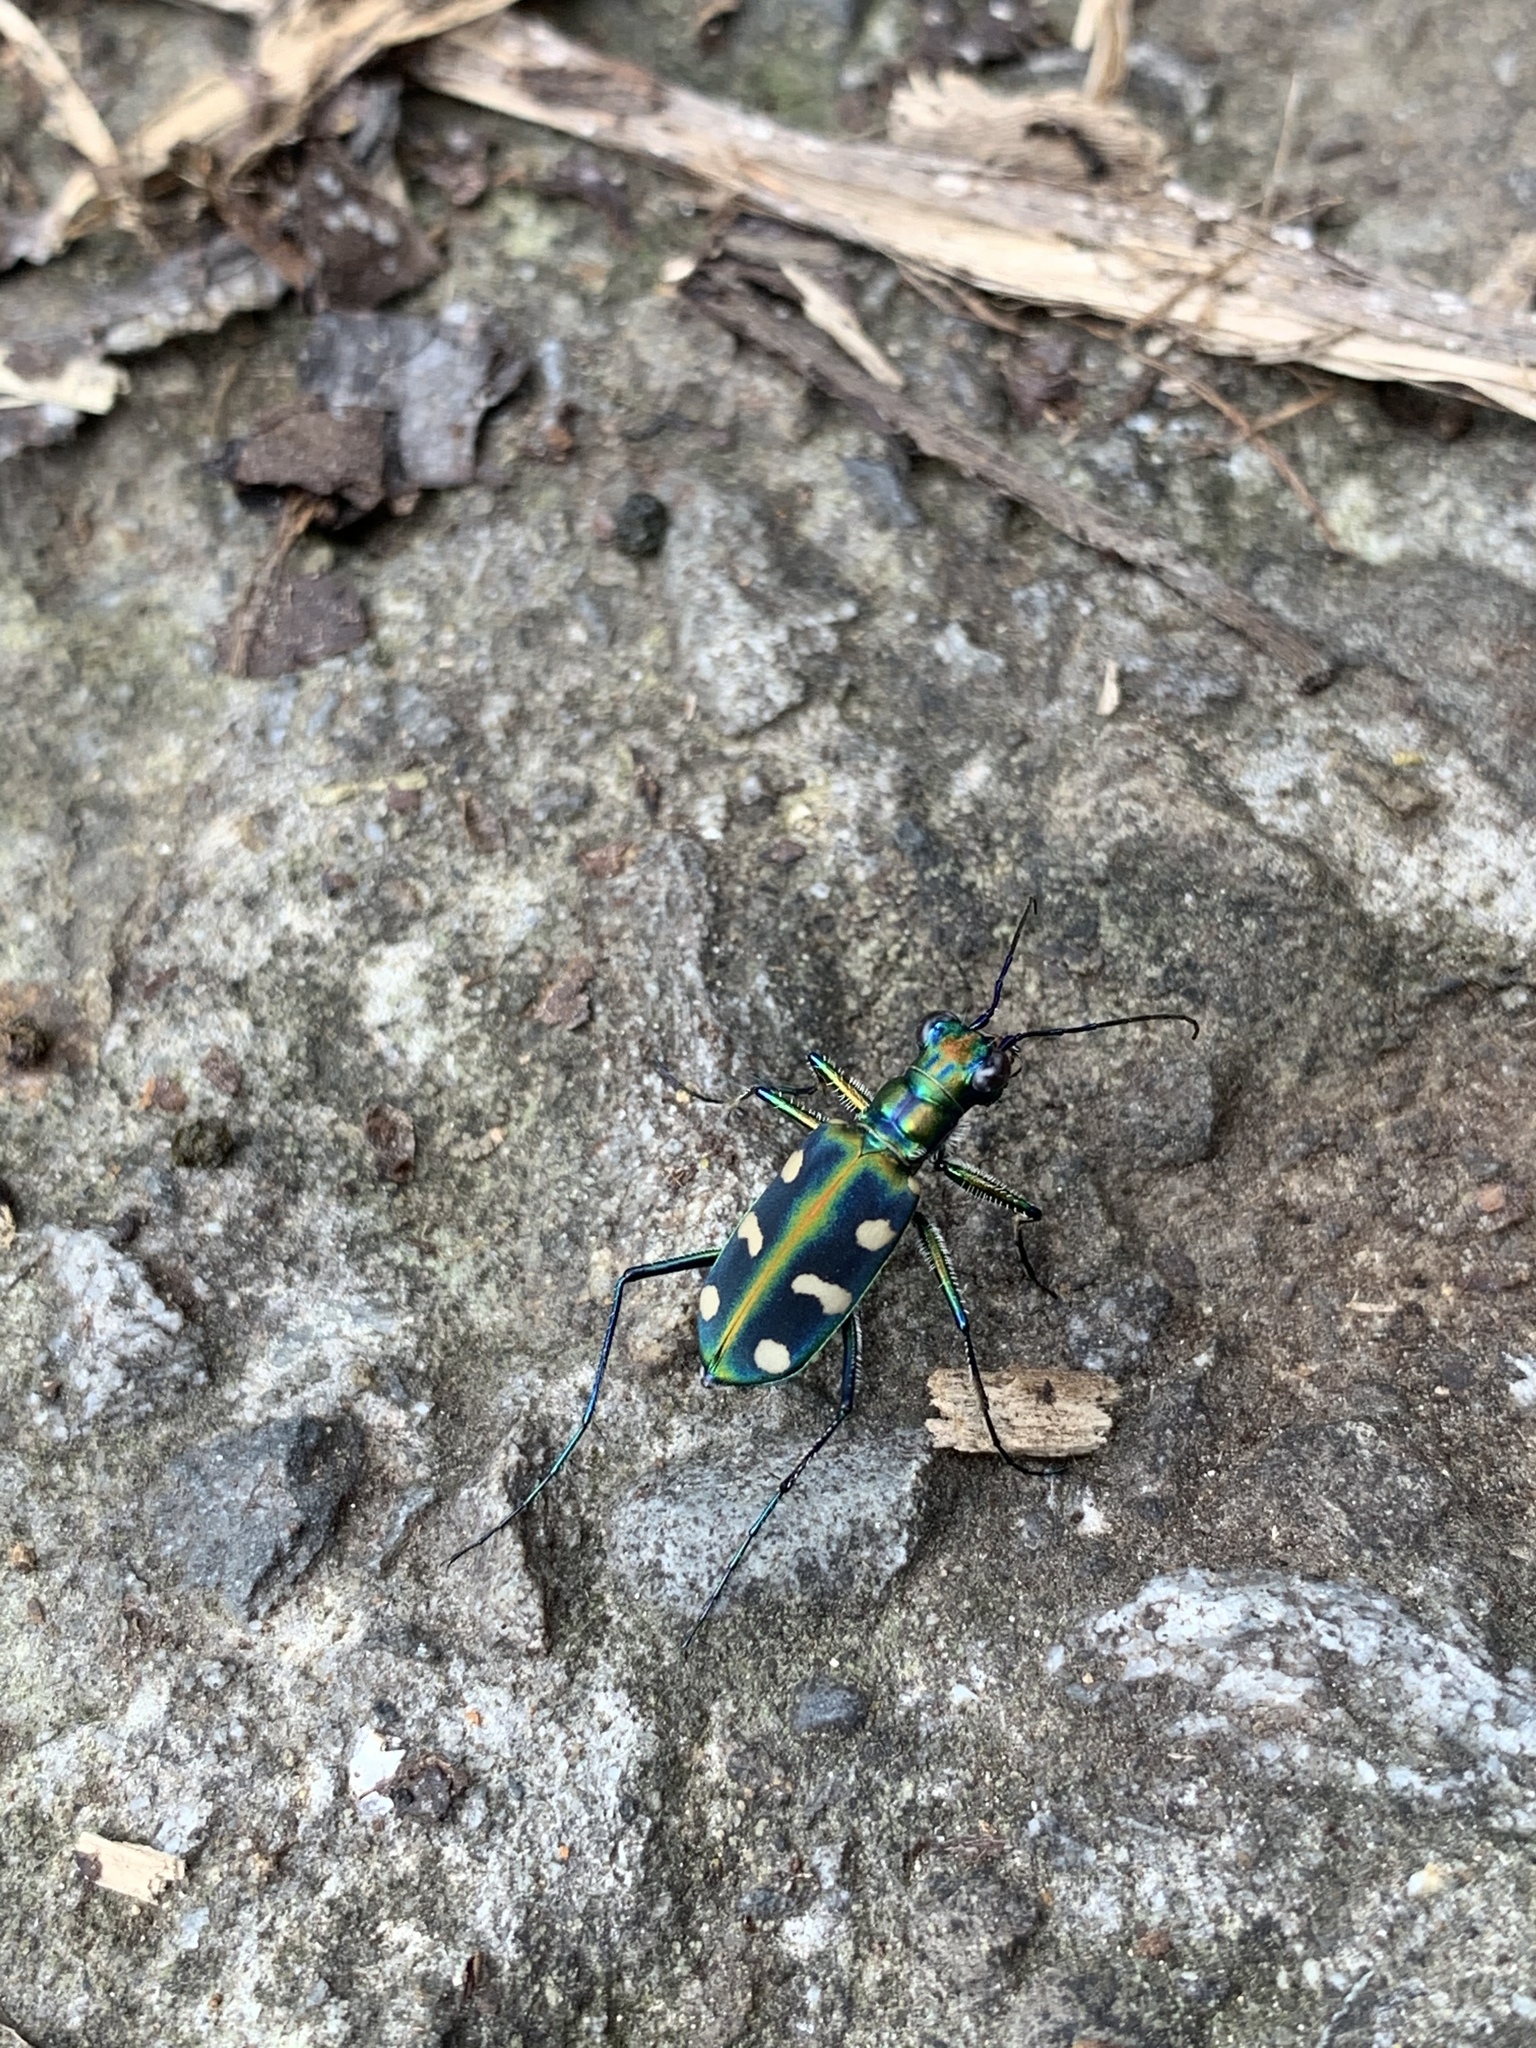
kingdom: Animalia
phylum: Arthropoda
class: Insecta
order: Coleoptera
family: Carabidae
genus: Cicindela
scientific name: Cicindela batesi
